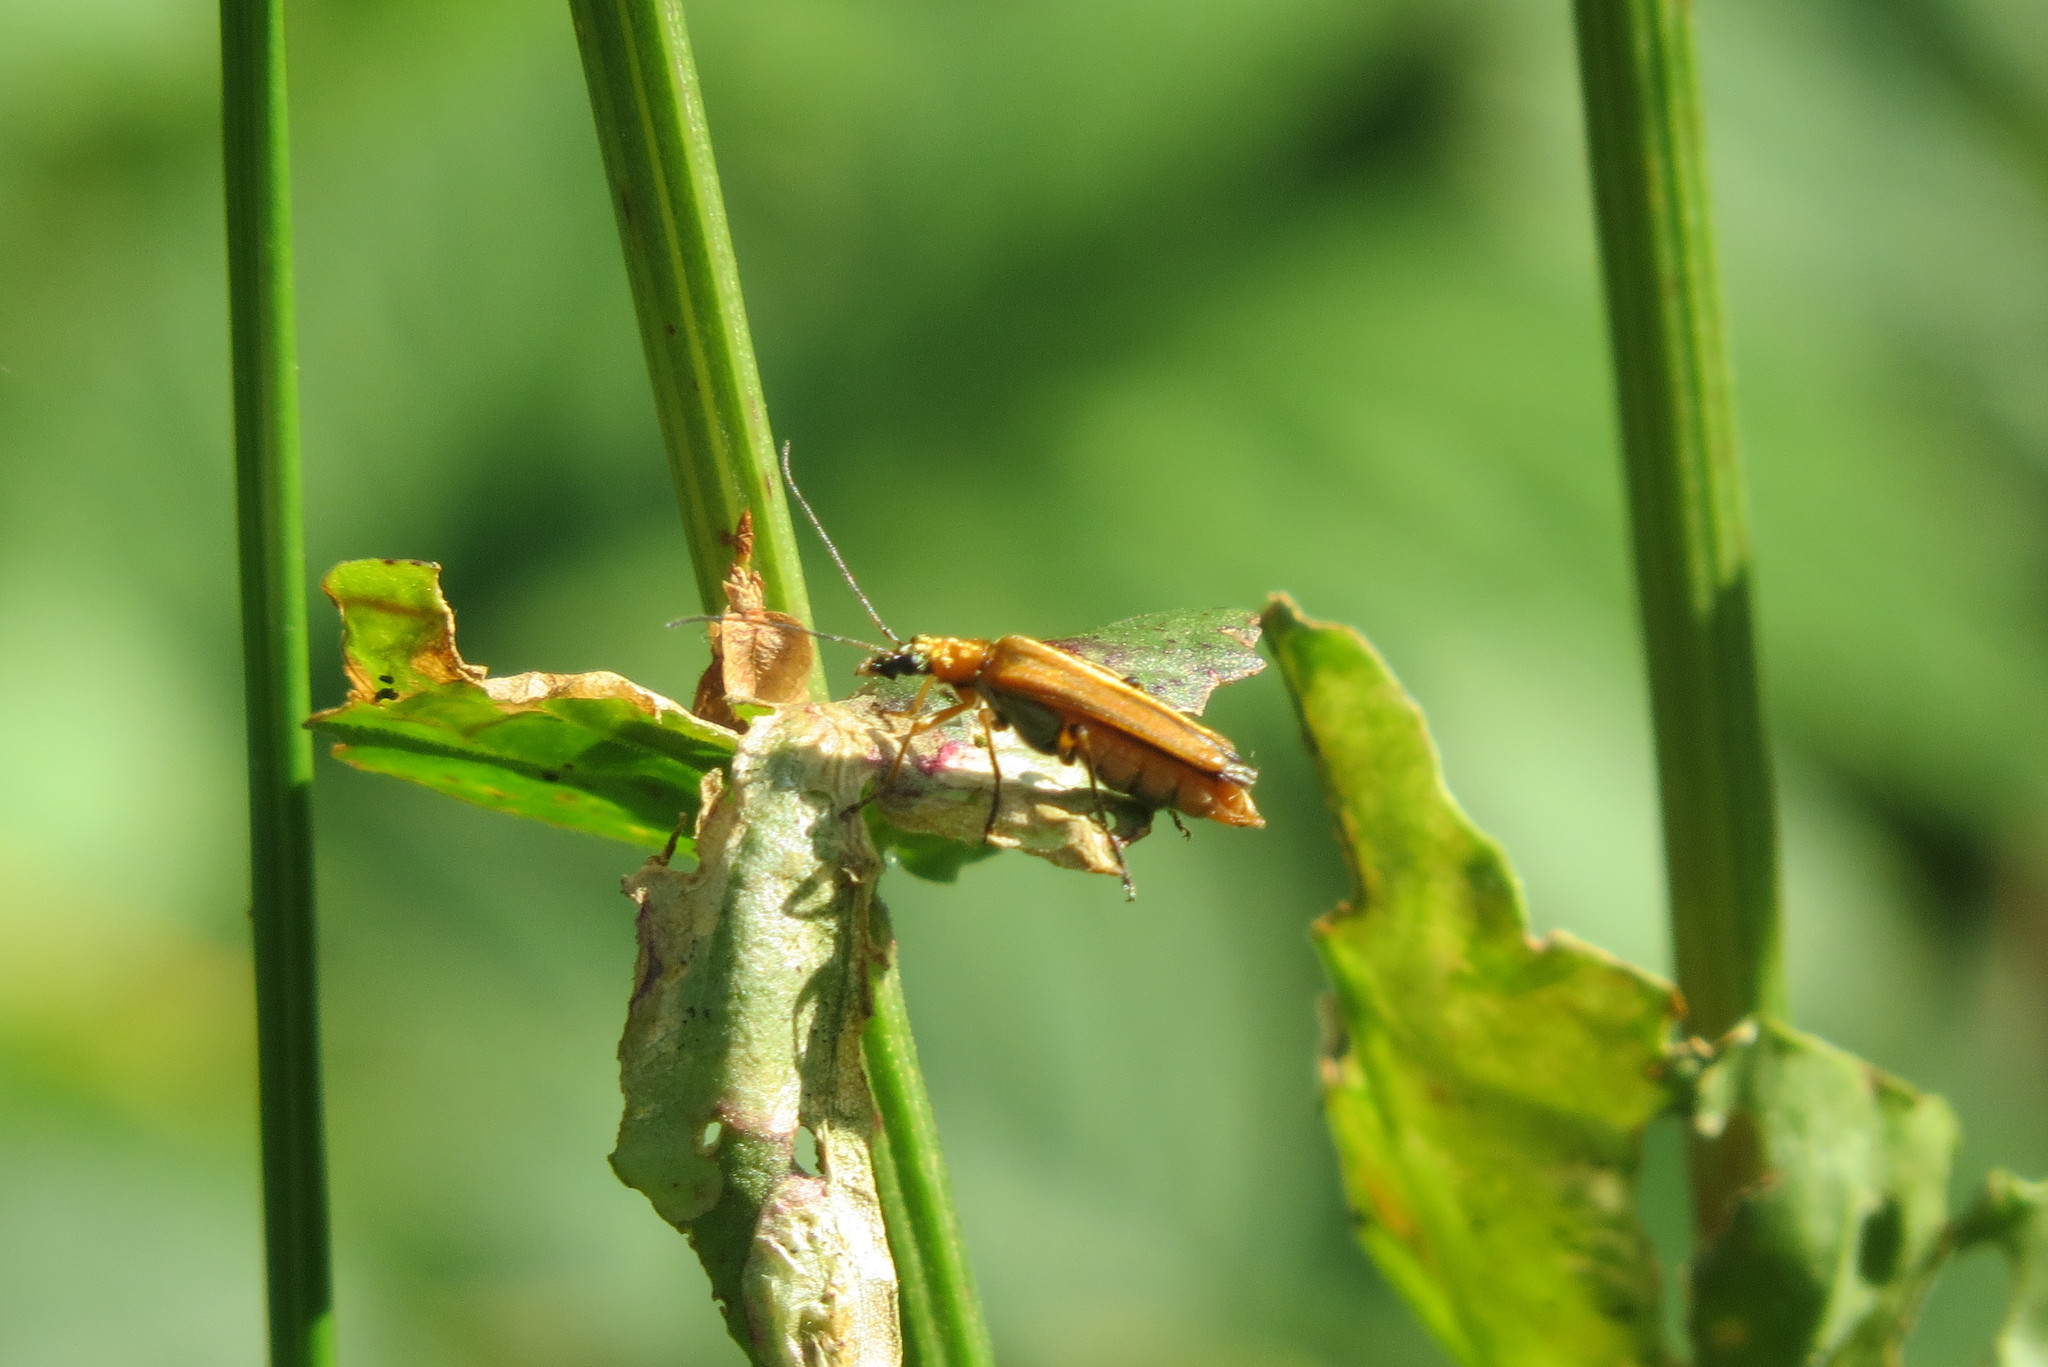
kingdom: Animalia
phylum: Arthropoda
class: Insecta
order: Coleoptera
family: Oedemeridae
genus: Oedemera
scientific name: Oedemera podagrariae
